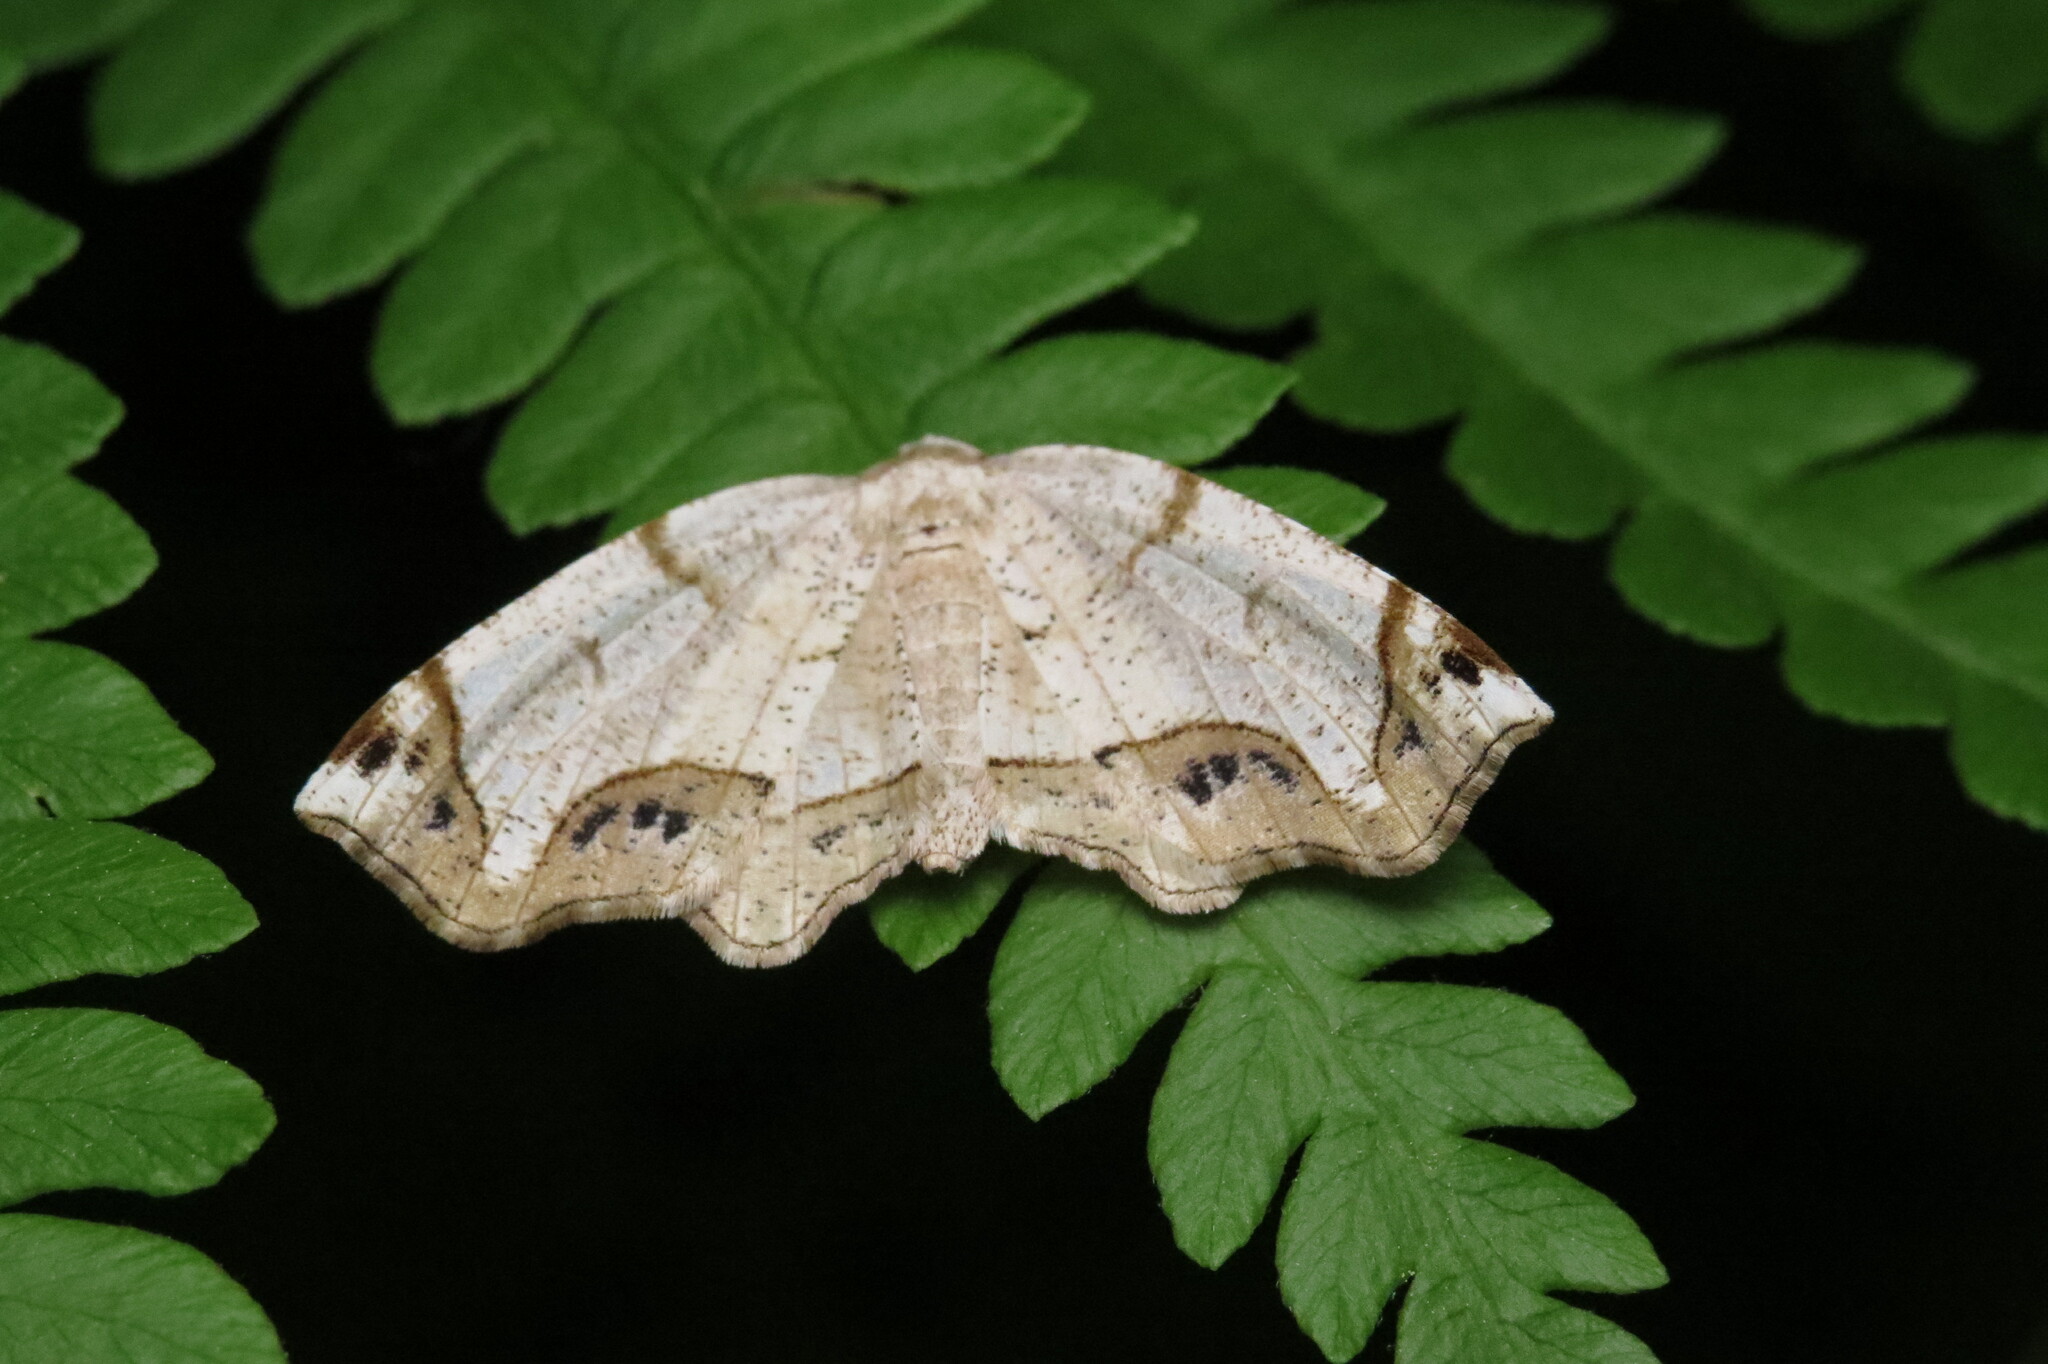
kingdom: Animalia
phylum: Arthropoda
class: Insecta
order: Lepidoptera
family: Geometridae
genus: Probole
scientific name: Probole amicaria
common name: Friendly probole moth
